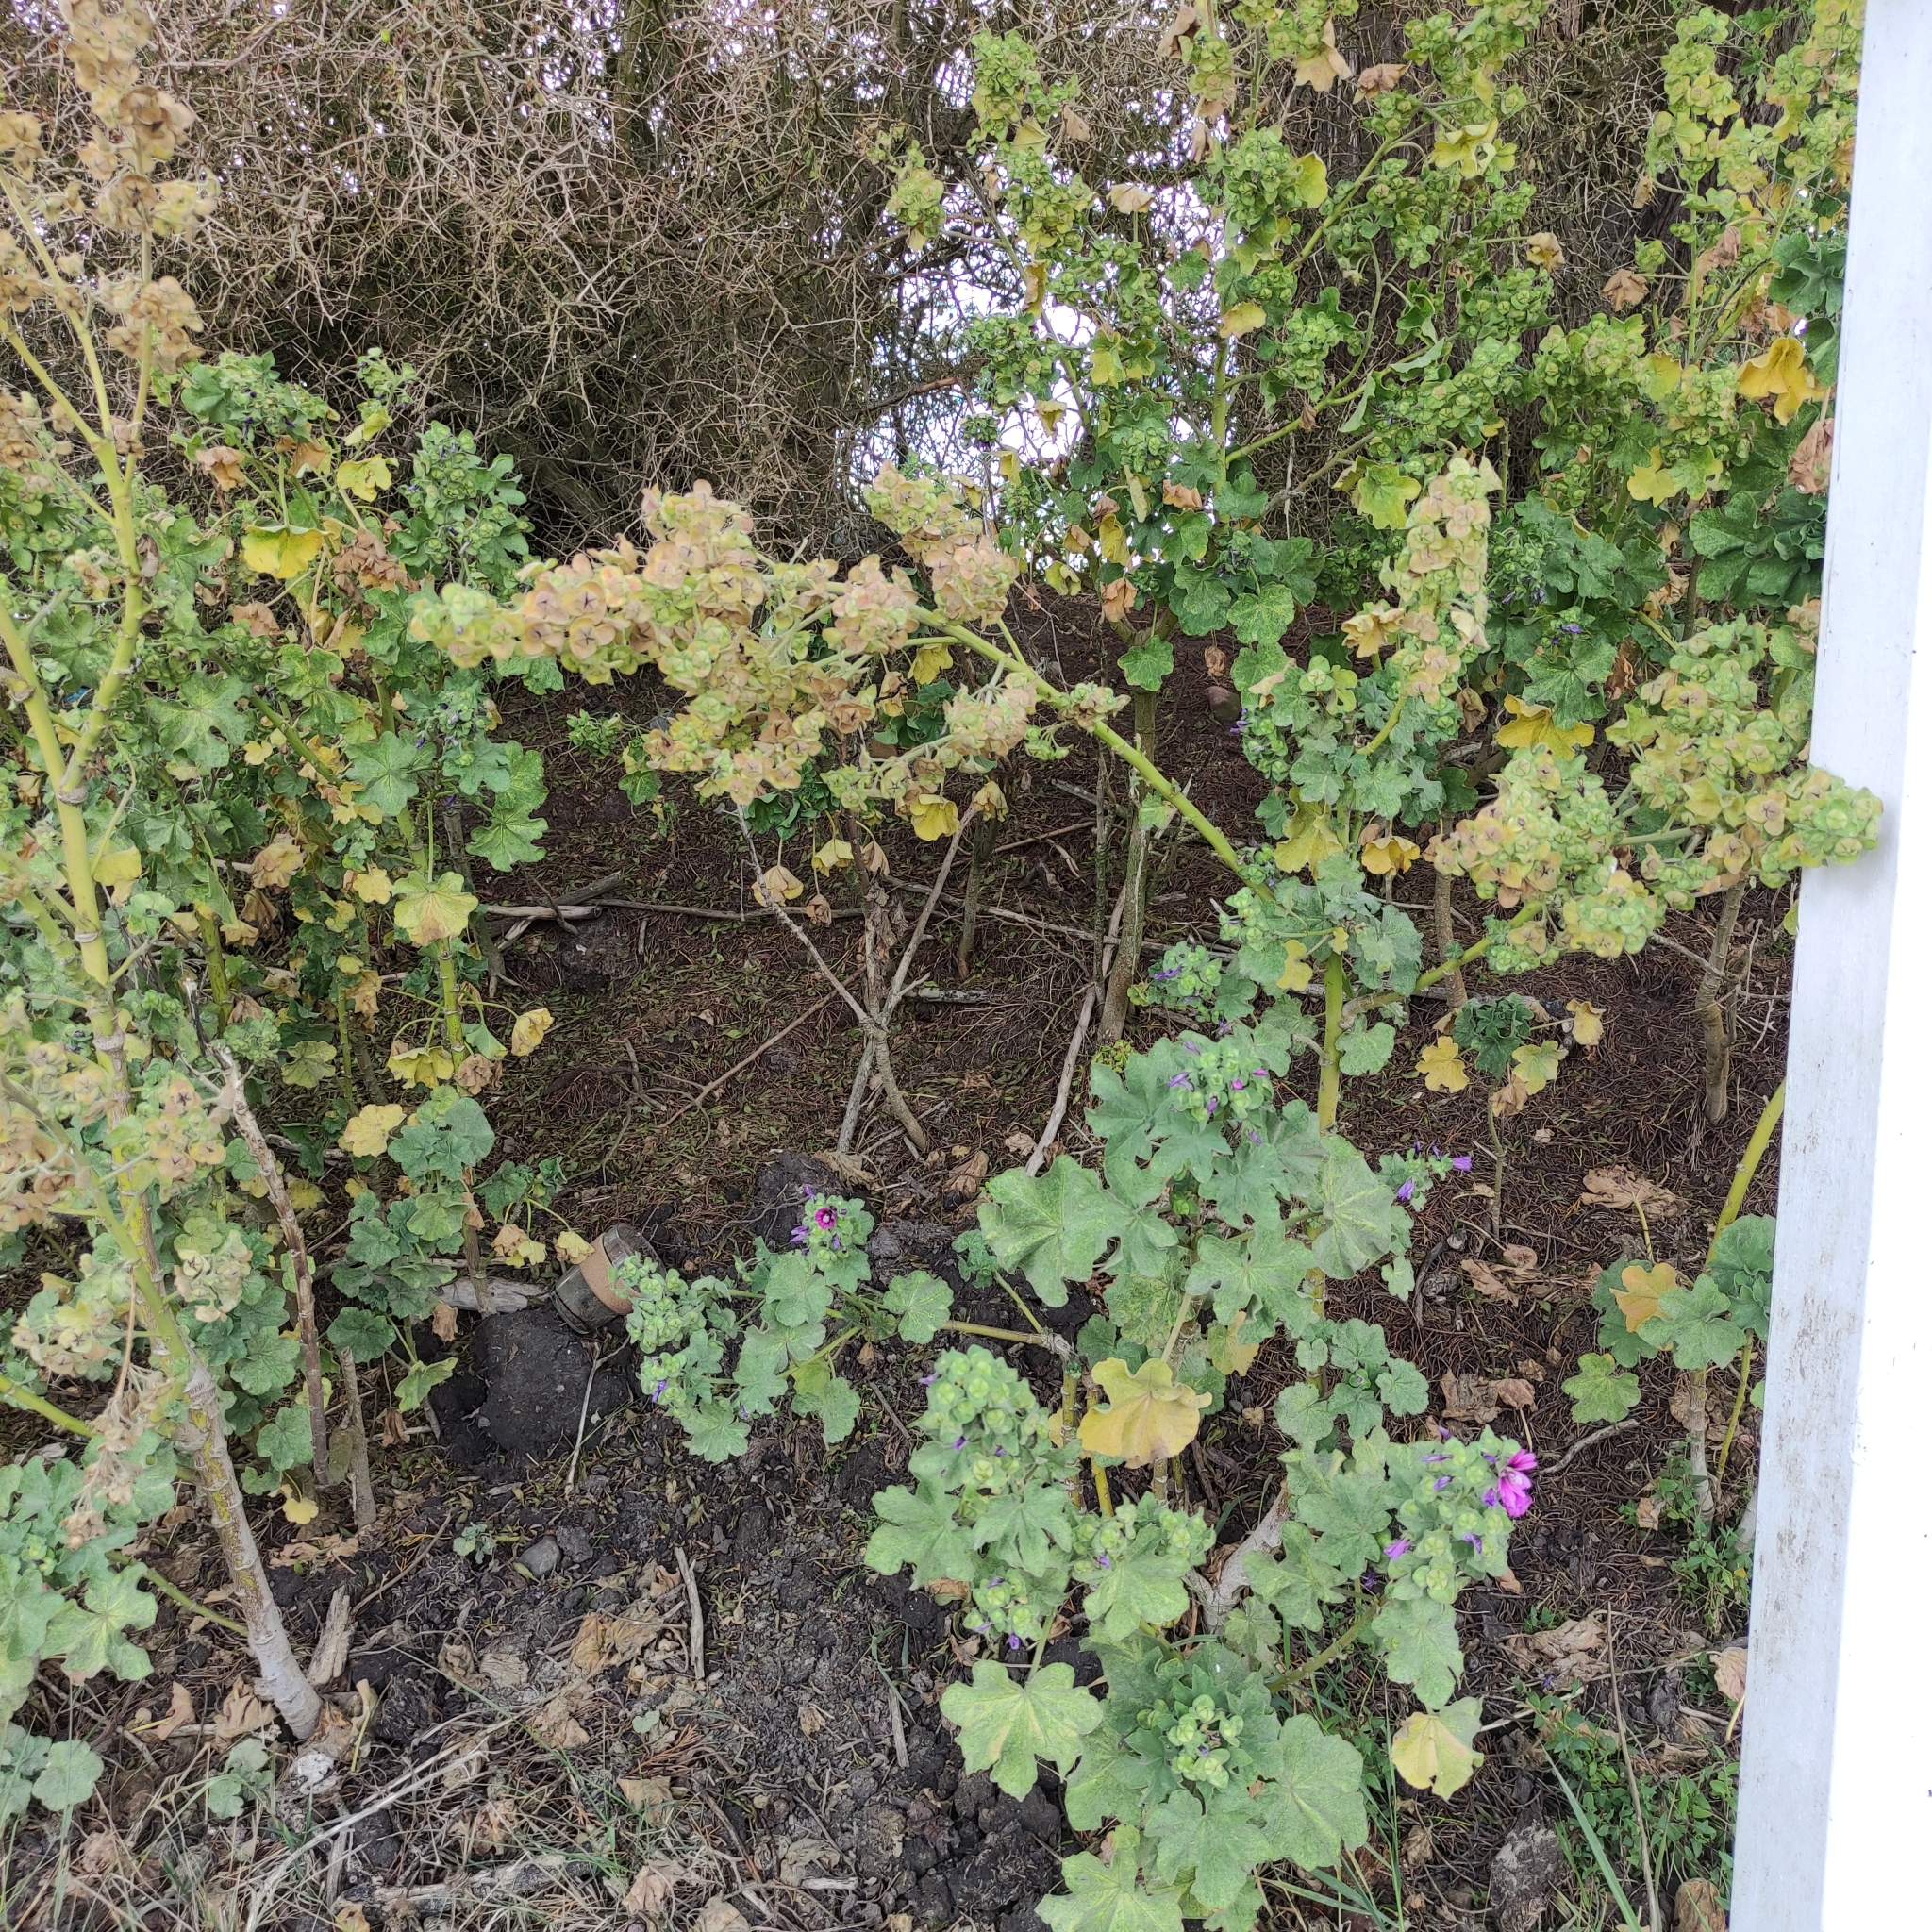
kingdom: Plantae
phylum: Tracheophyta
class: Magnoliopsida
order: Malvales
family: Malvaceae
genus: Malva
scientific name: Malva arborea
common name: Tree mallow
